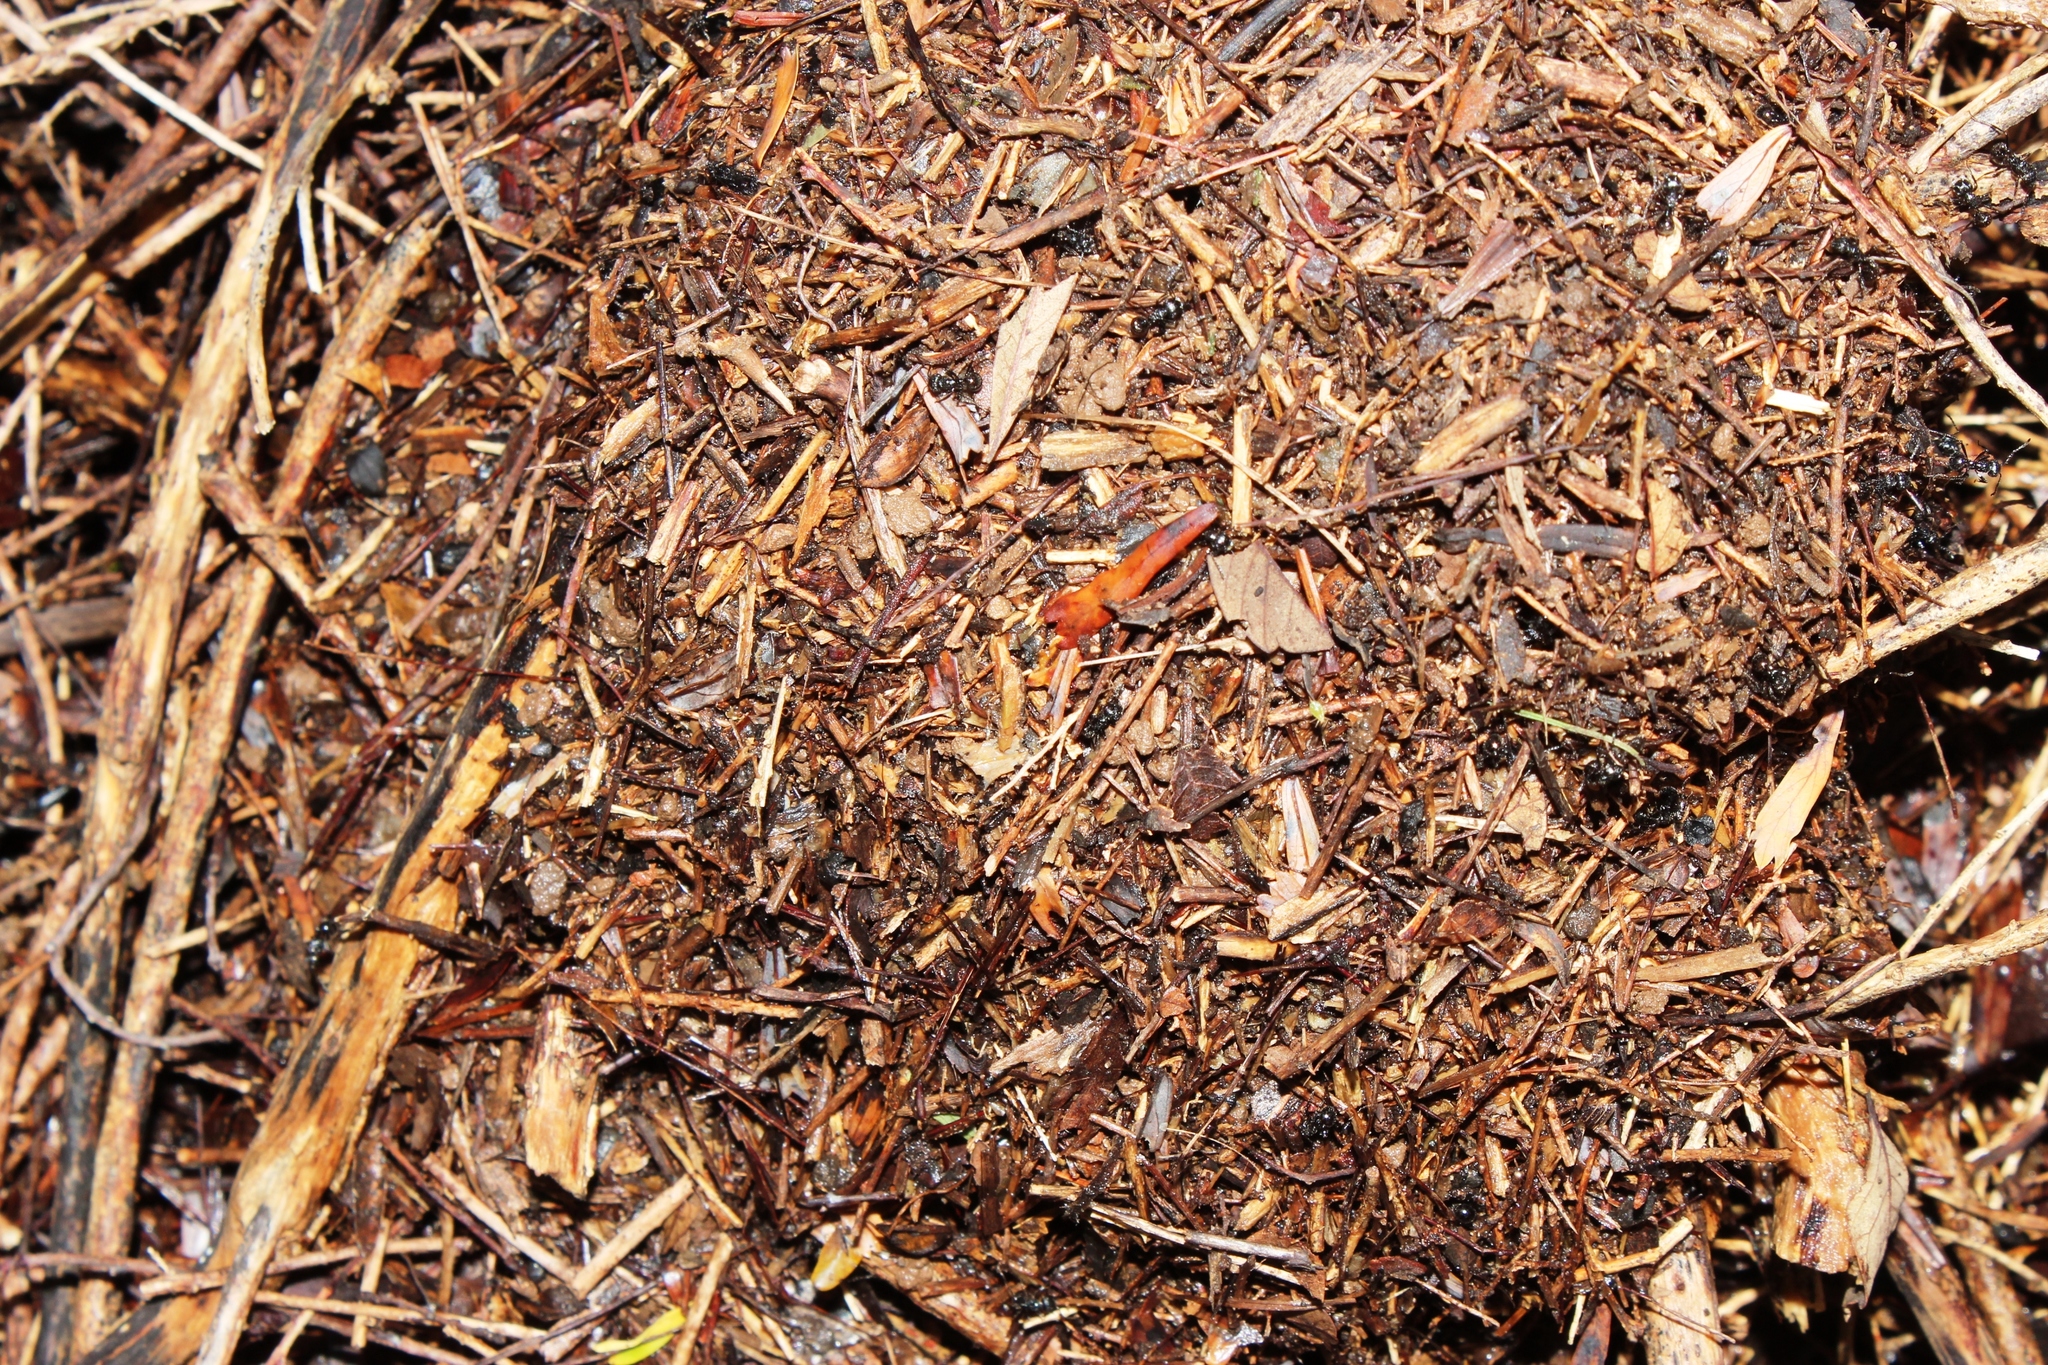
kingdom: Animalia
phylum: Arthropoda
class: Insecta
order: Hymenoptera
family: Formicidae
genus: Myrmicaria
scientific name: Myrmicaria nigra
